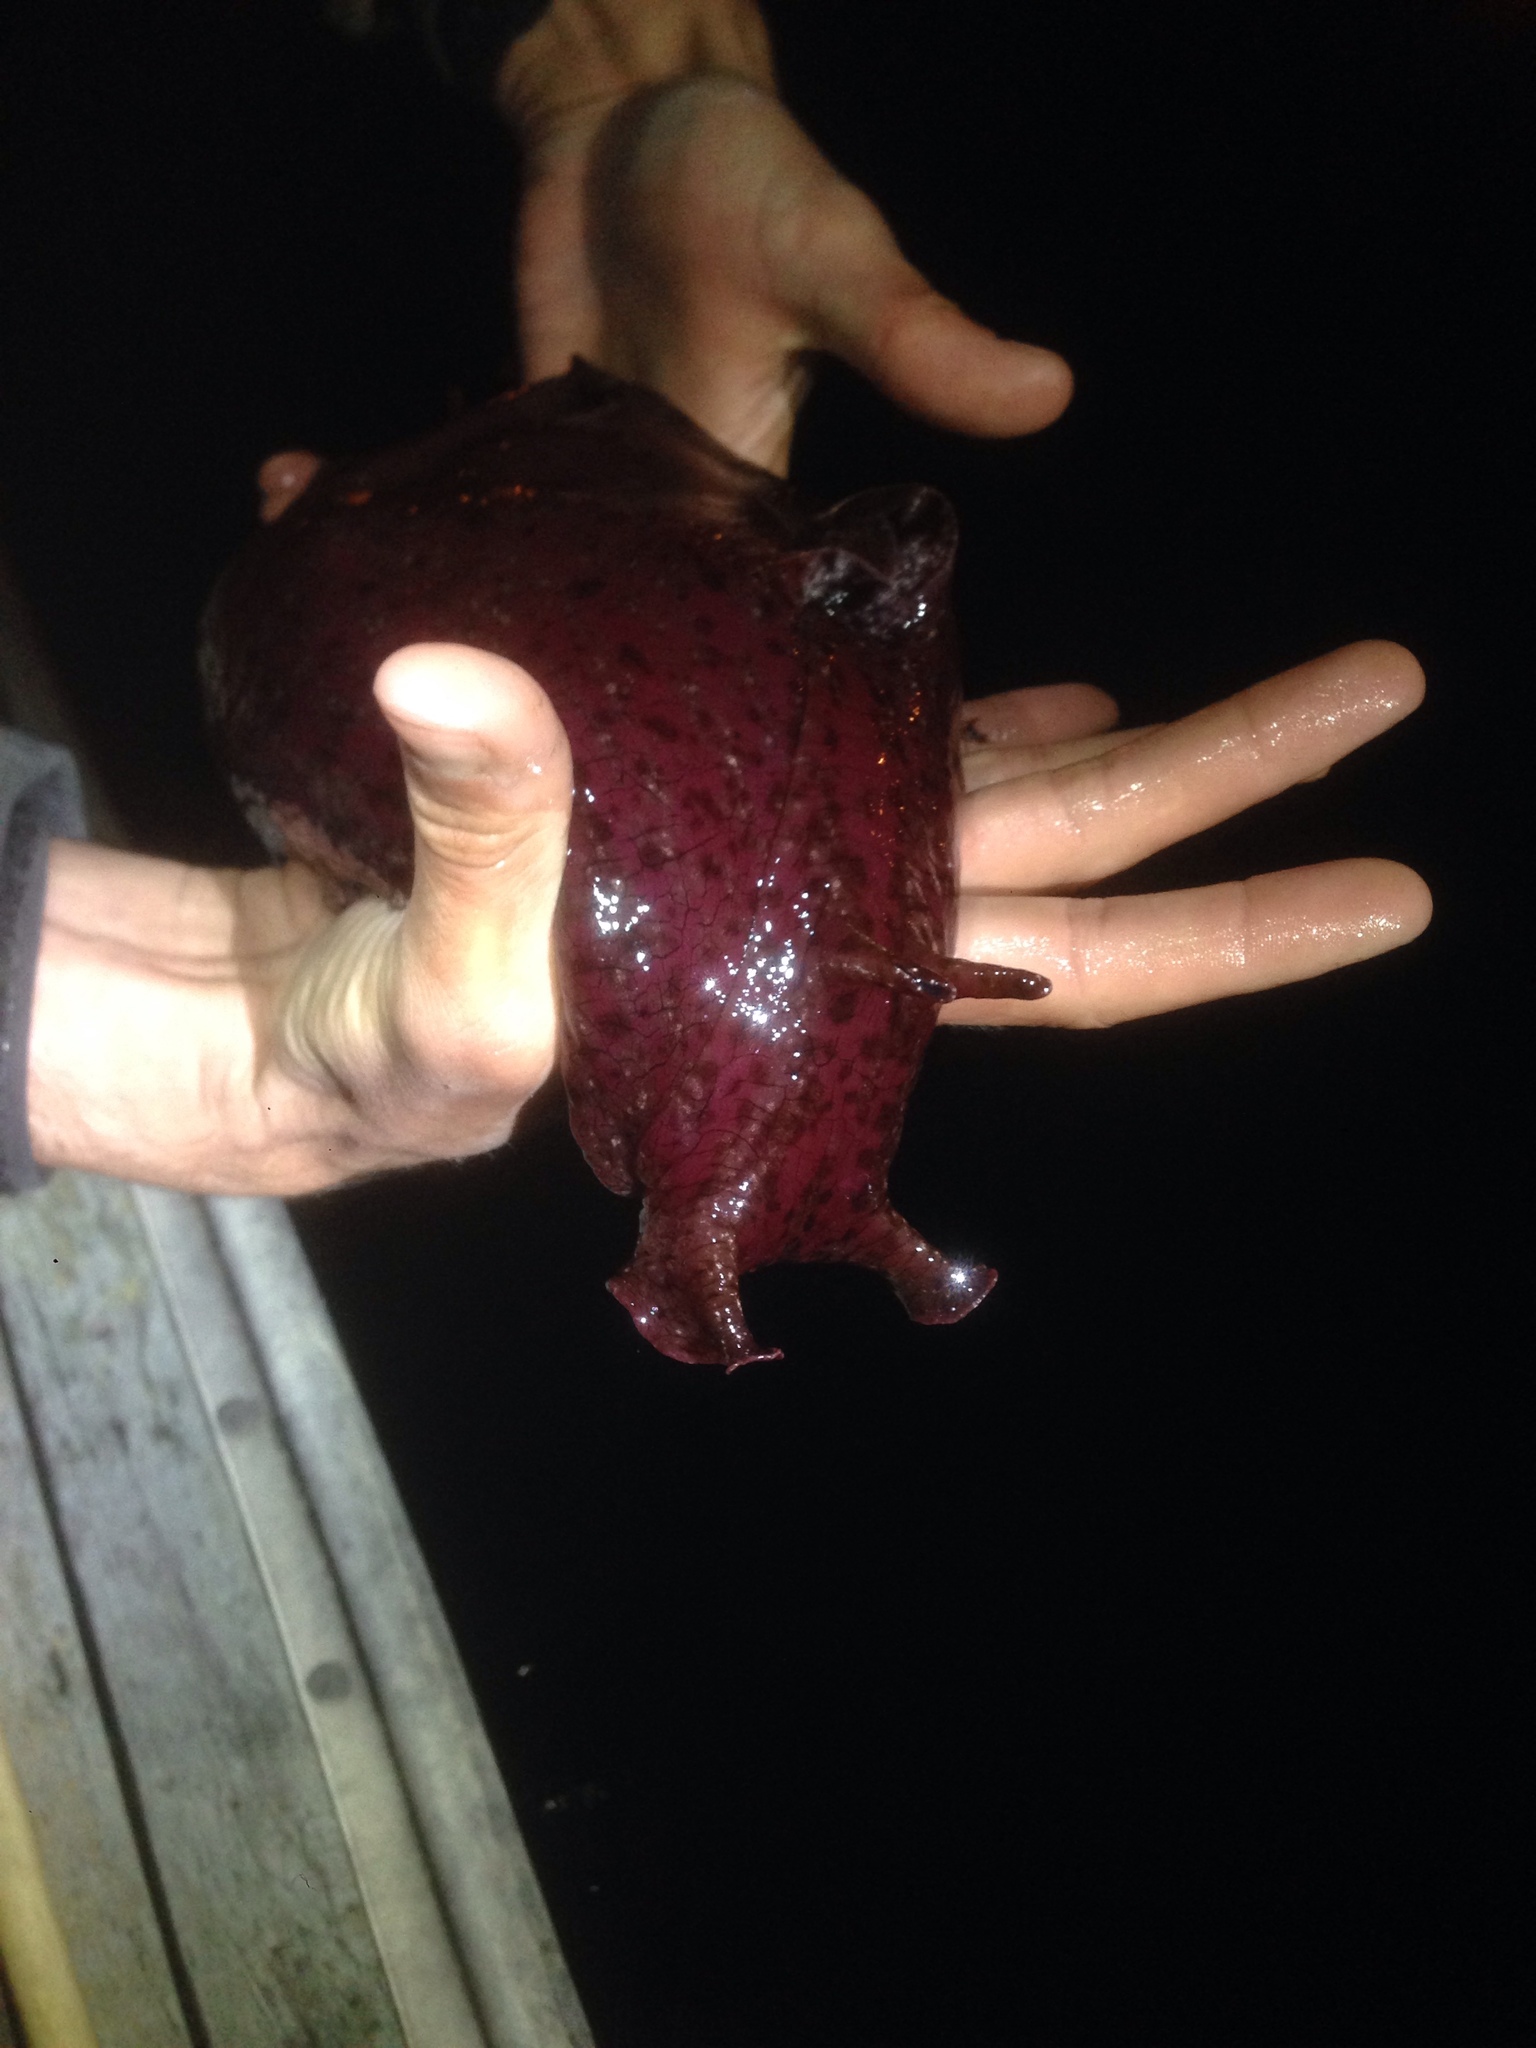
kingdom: Animalia
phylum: Mollusca
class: Gastropoda
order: Aplysiida
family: Aplysiidae
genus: Aplysia
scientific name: Aplysia californica
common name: California seahare
